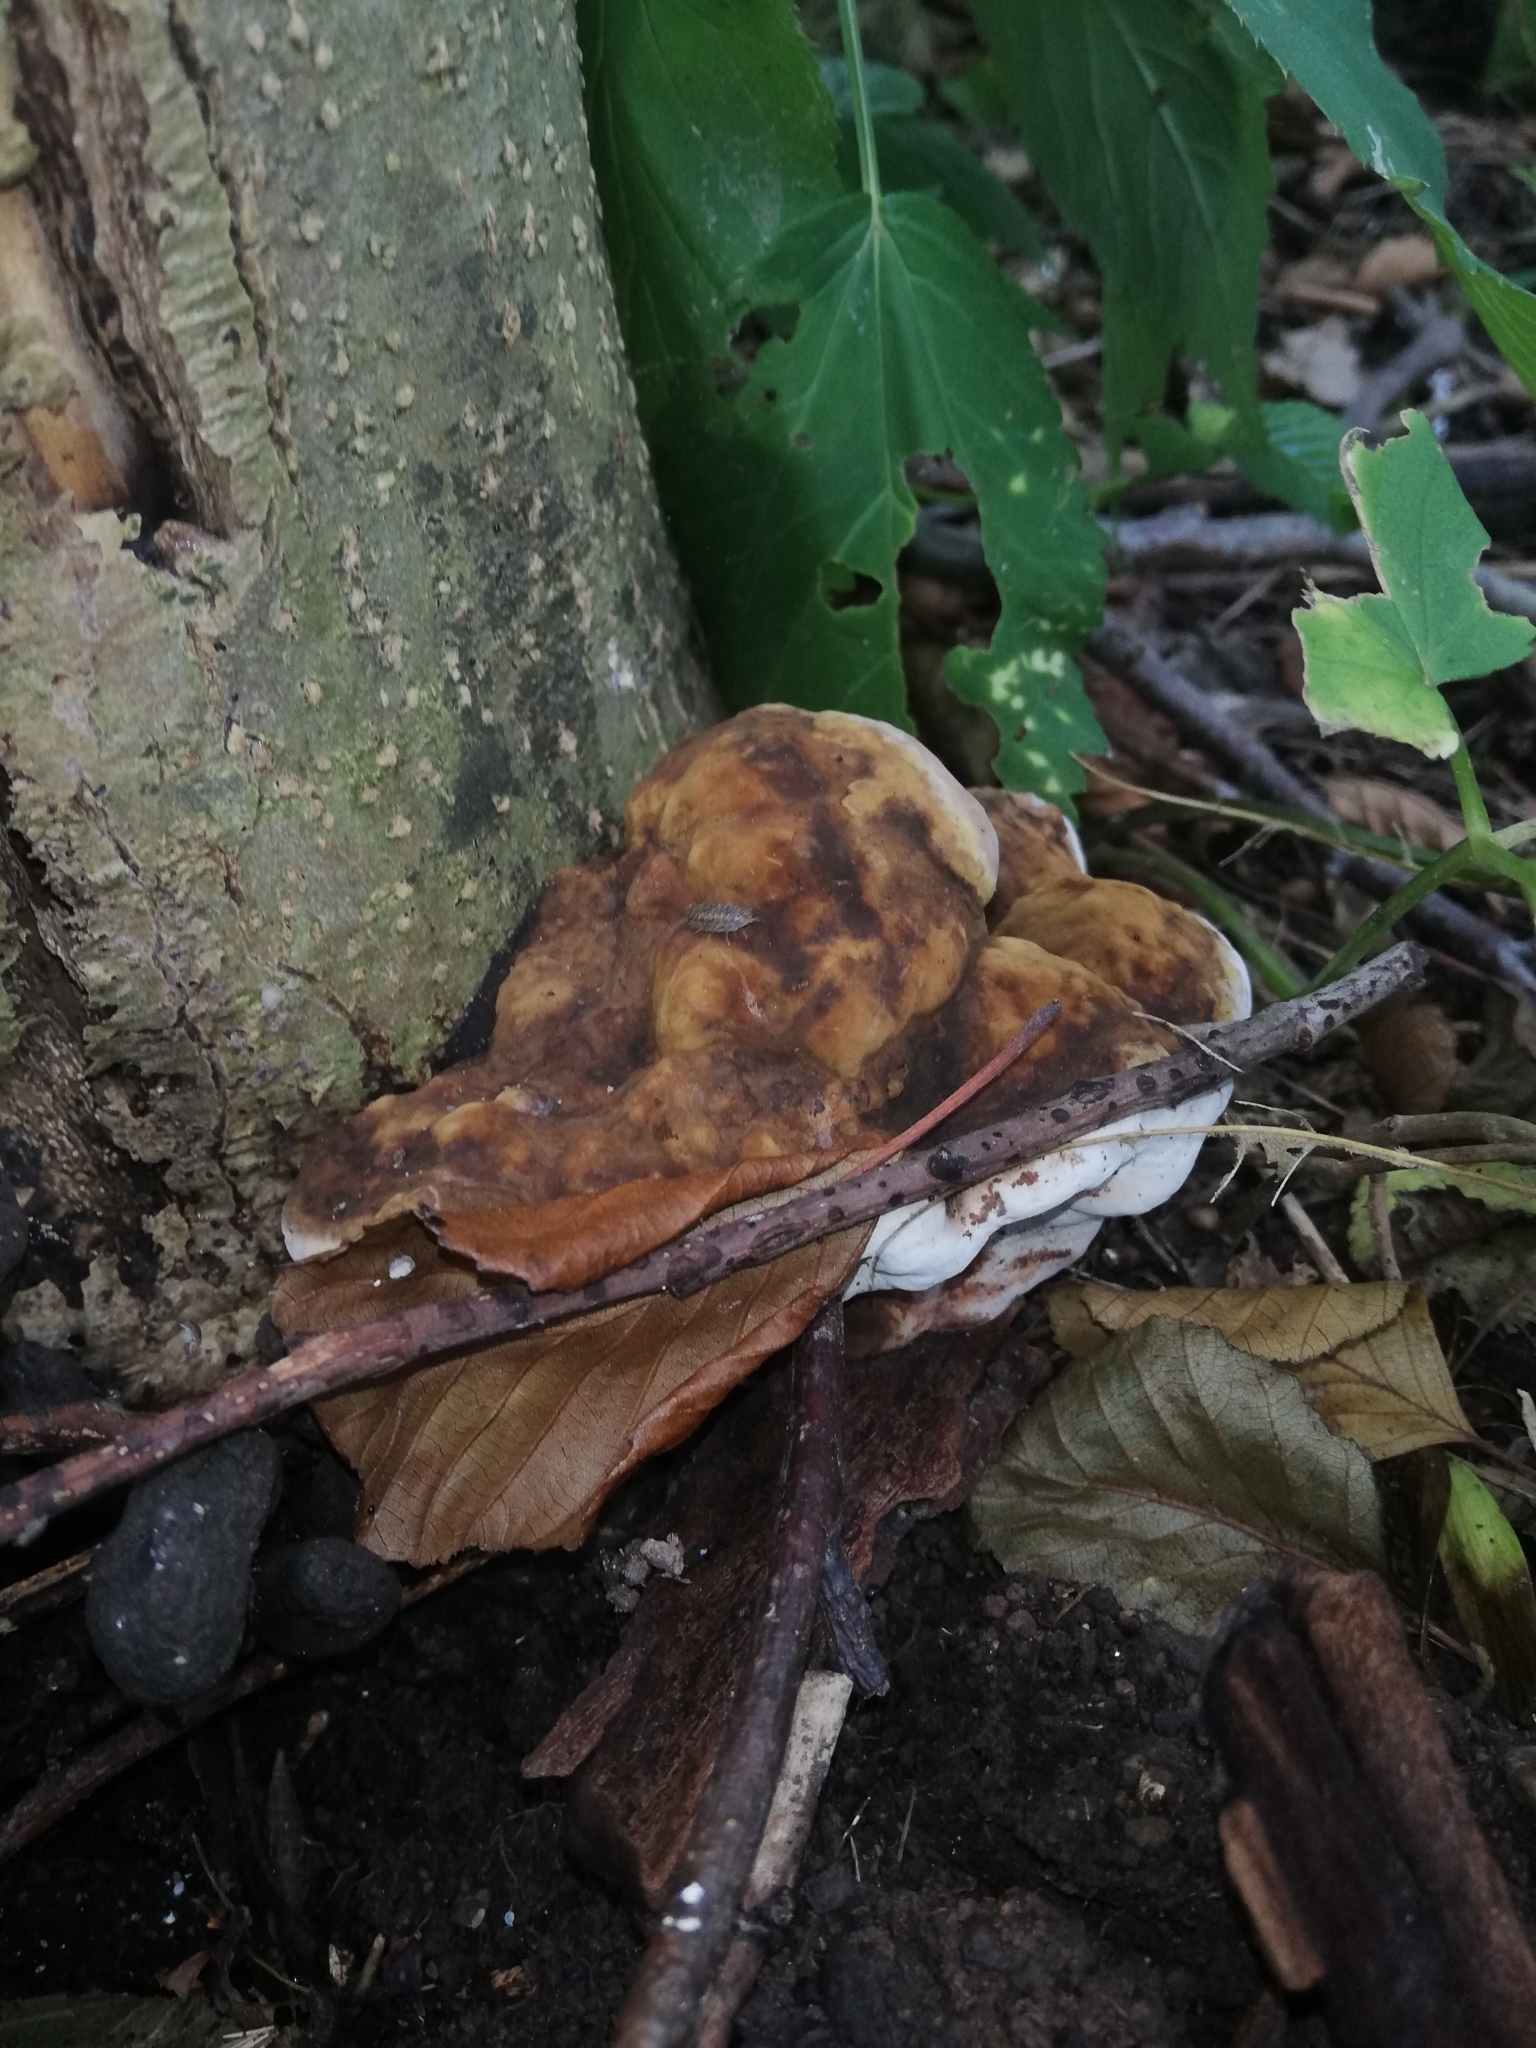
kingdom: Fungi
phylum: Basidiomycota
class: Agaricomycetes
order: Polyporales
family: Polyporaceae
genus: Ganoderma
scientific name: Ganoderma applanatum
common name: Artist's bracket
